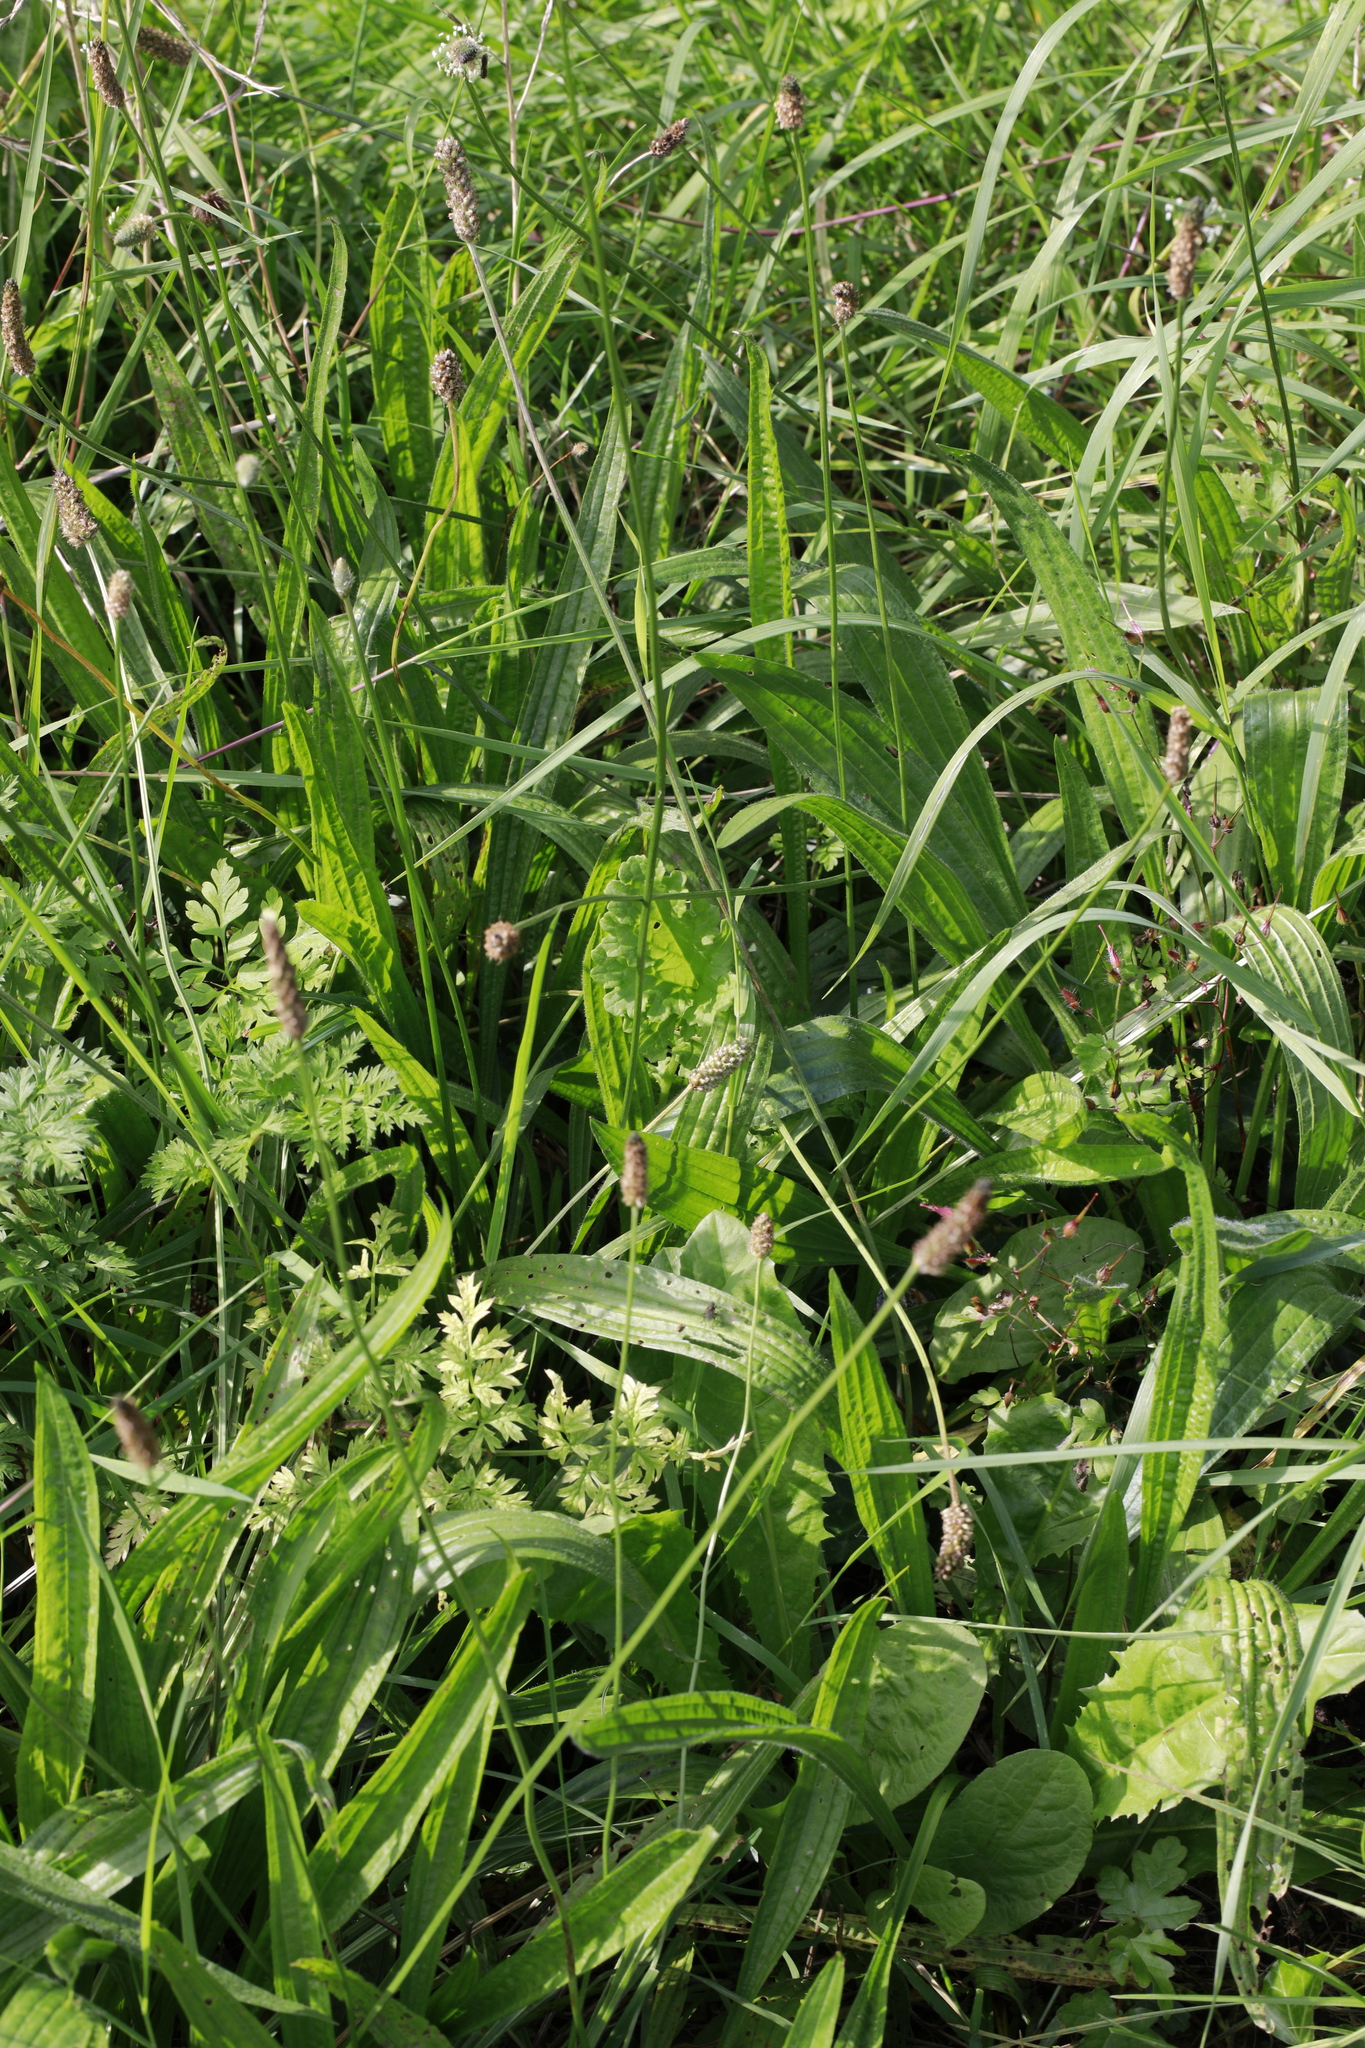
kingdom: Plantae
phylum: Tracheophyta
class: Magnoliopsida
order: Lamiales
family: Plantaginaceae
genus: Plantago
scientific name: Plantago lanceolata
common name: Ribwort plantain
